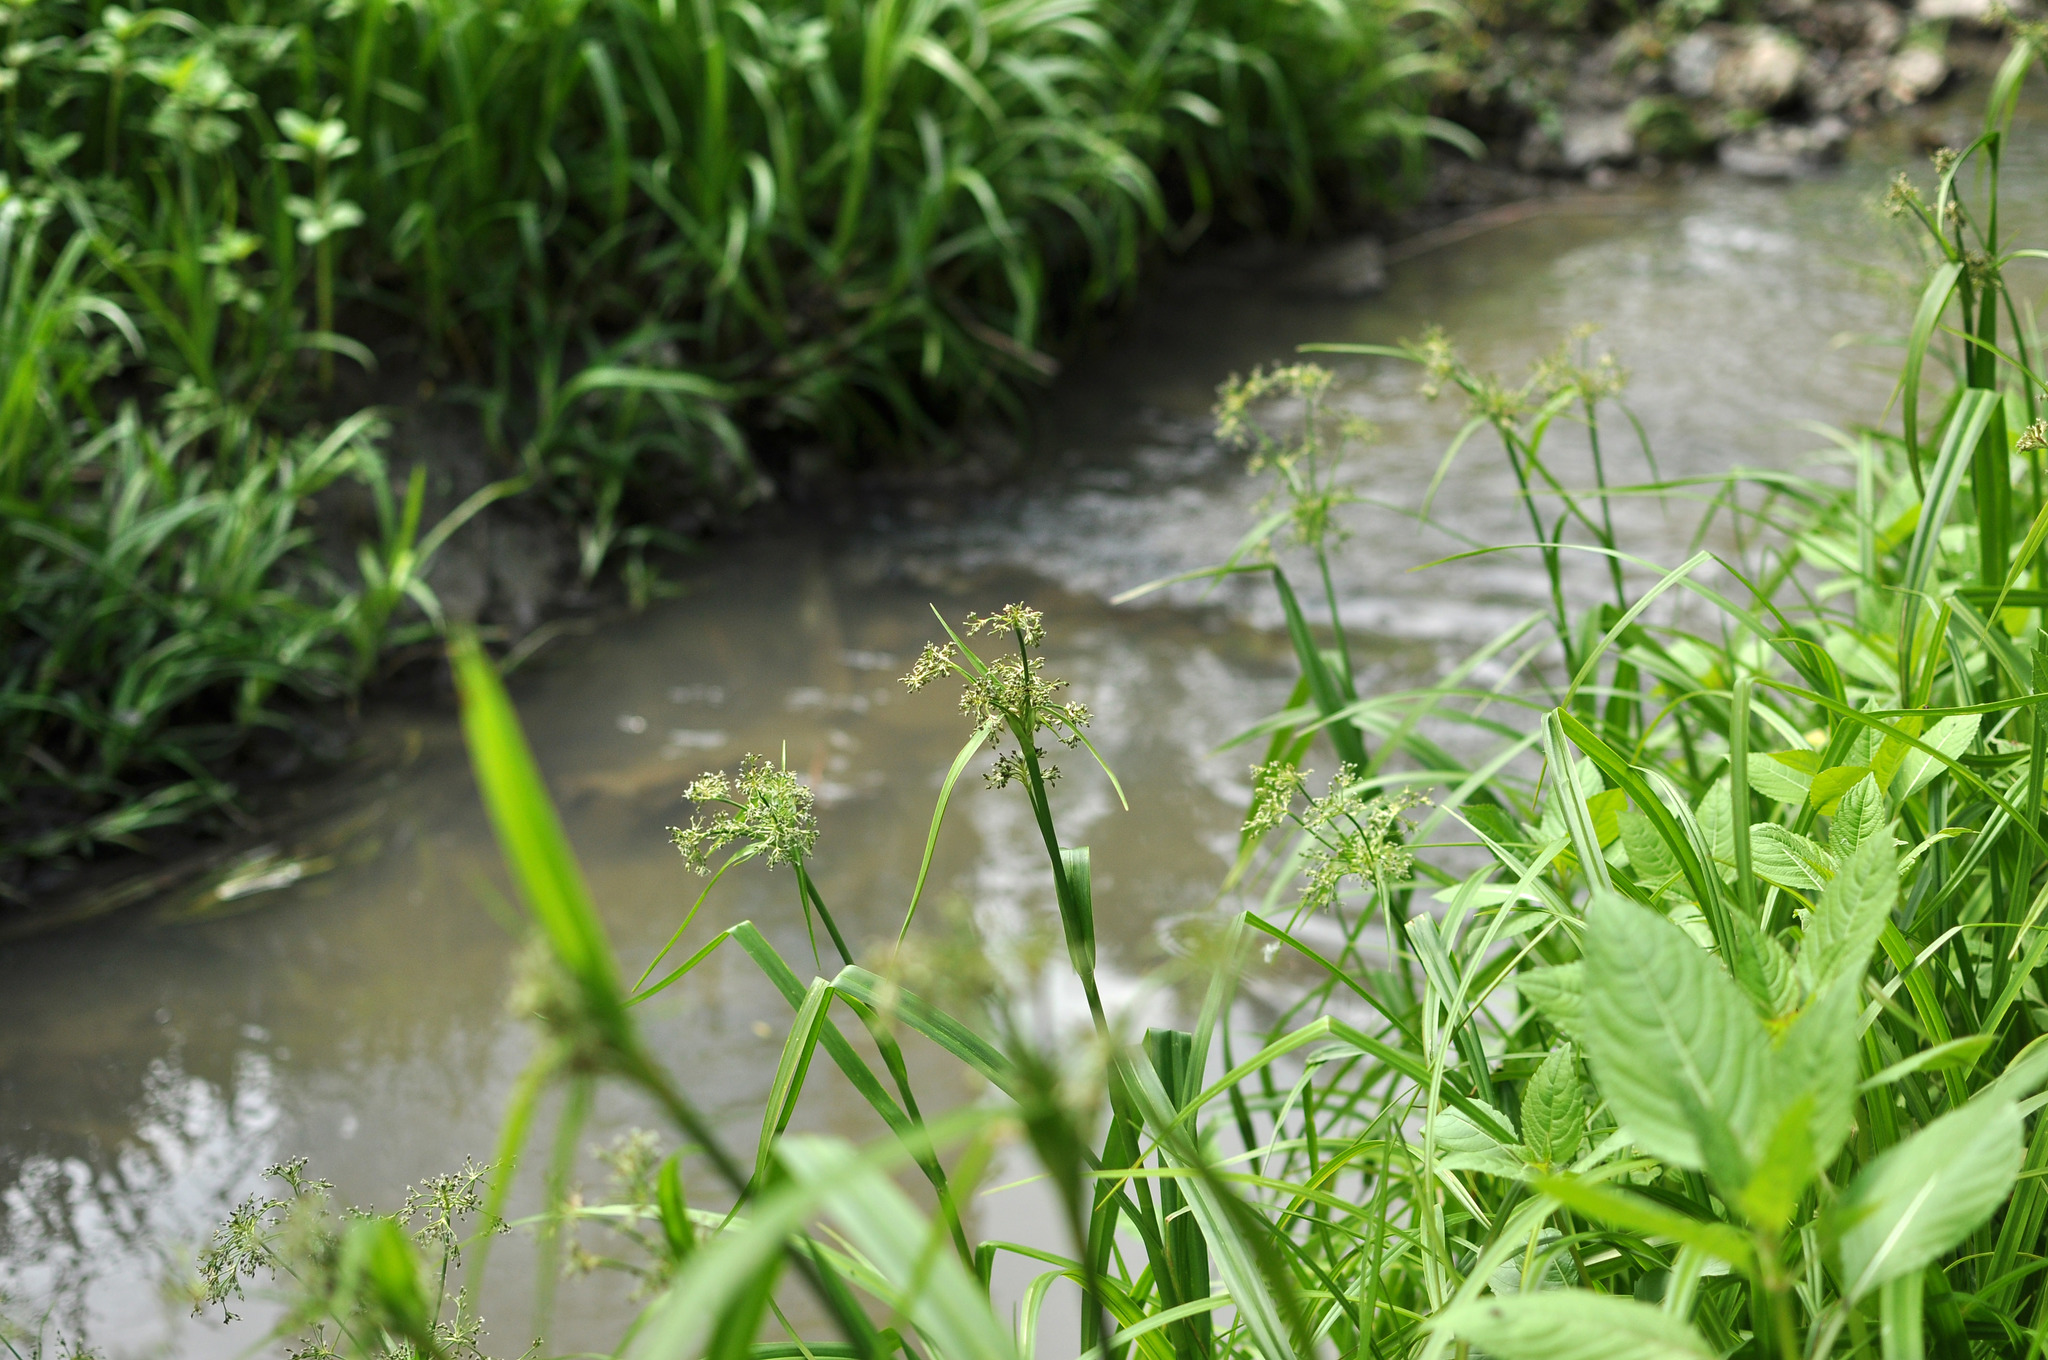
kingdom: Plantae
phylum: Tracheophyta
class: Liliopsida
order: Poales
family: Cyperaceae
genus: Scirpus
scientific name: Scirpus sylvaticus
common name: Wood club-rush
